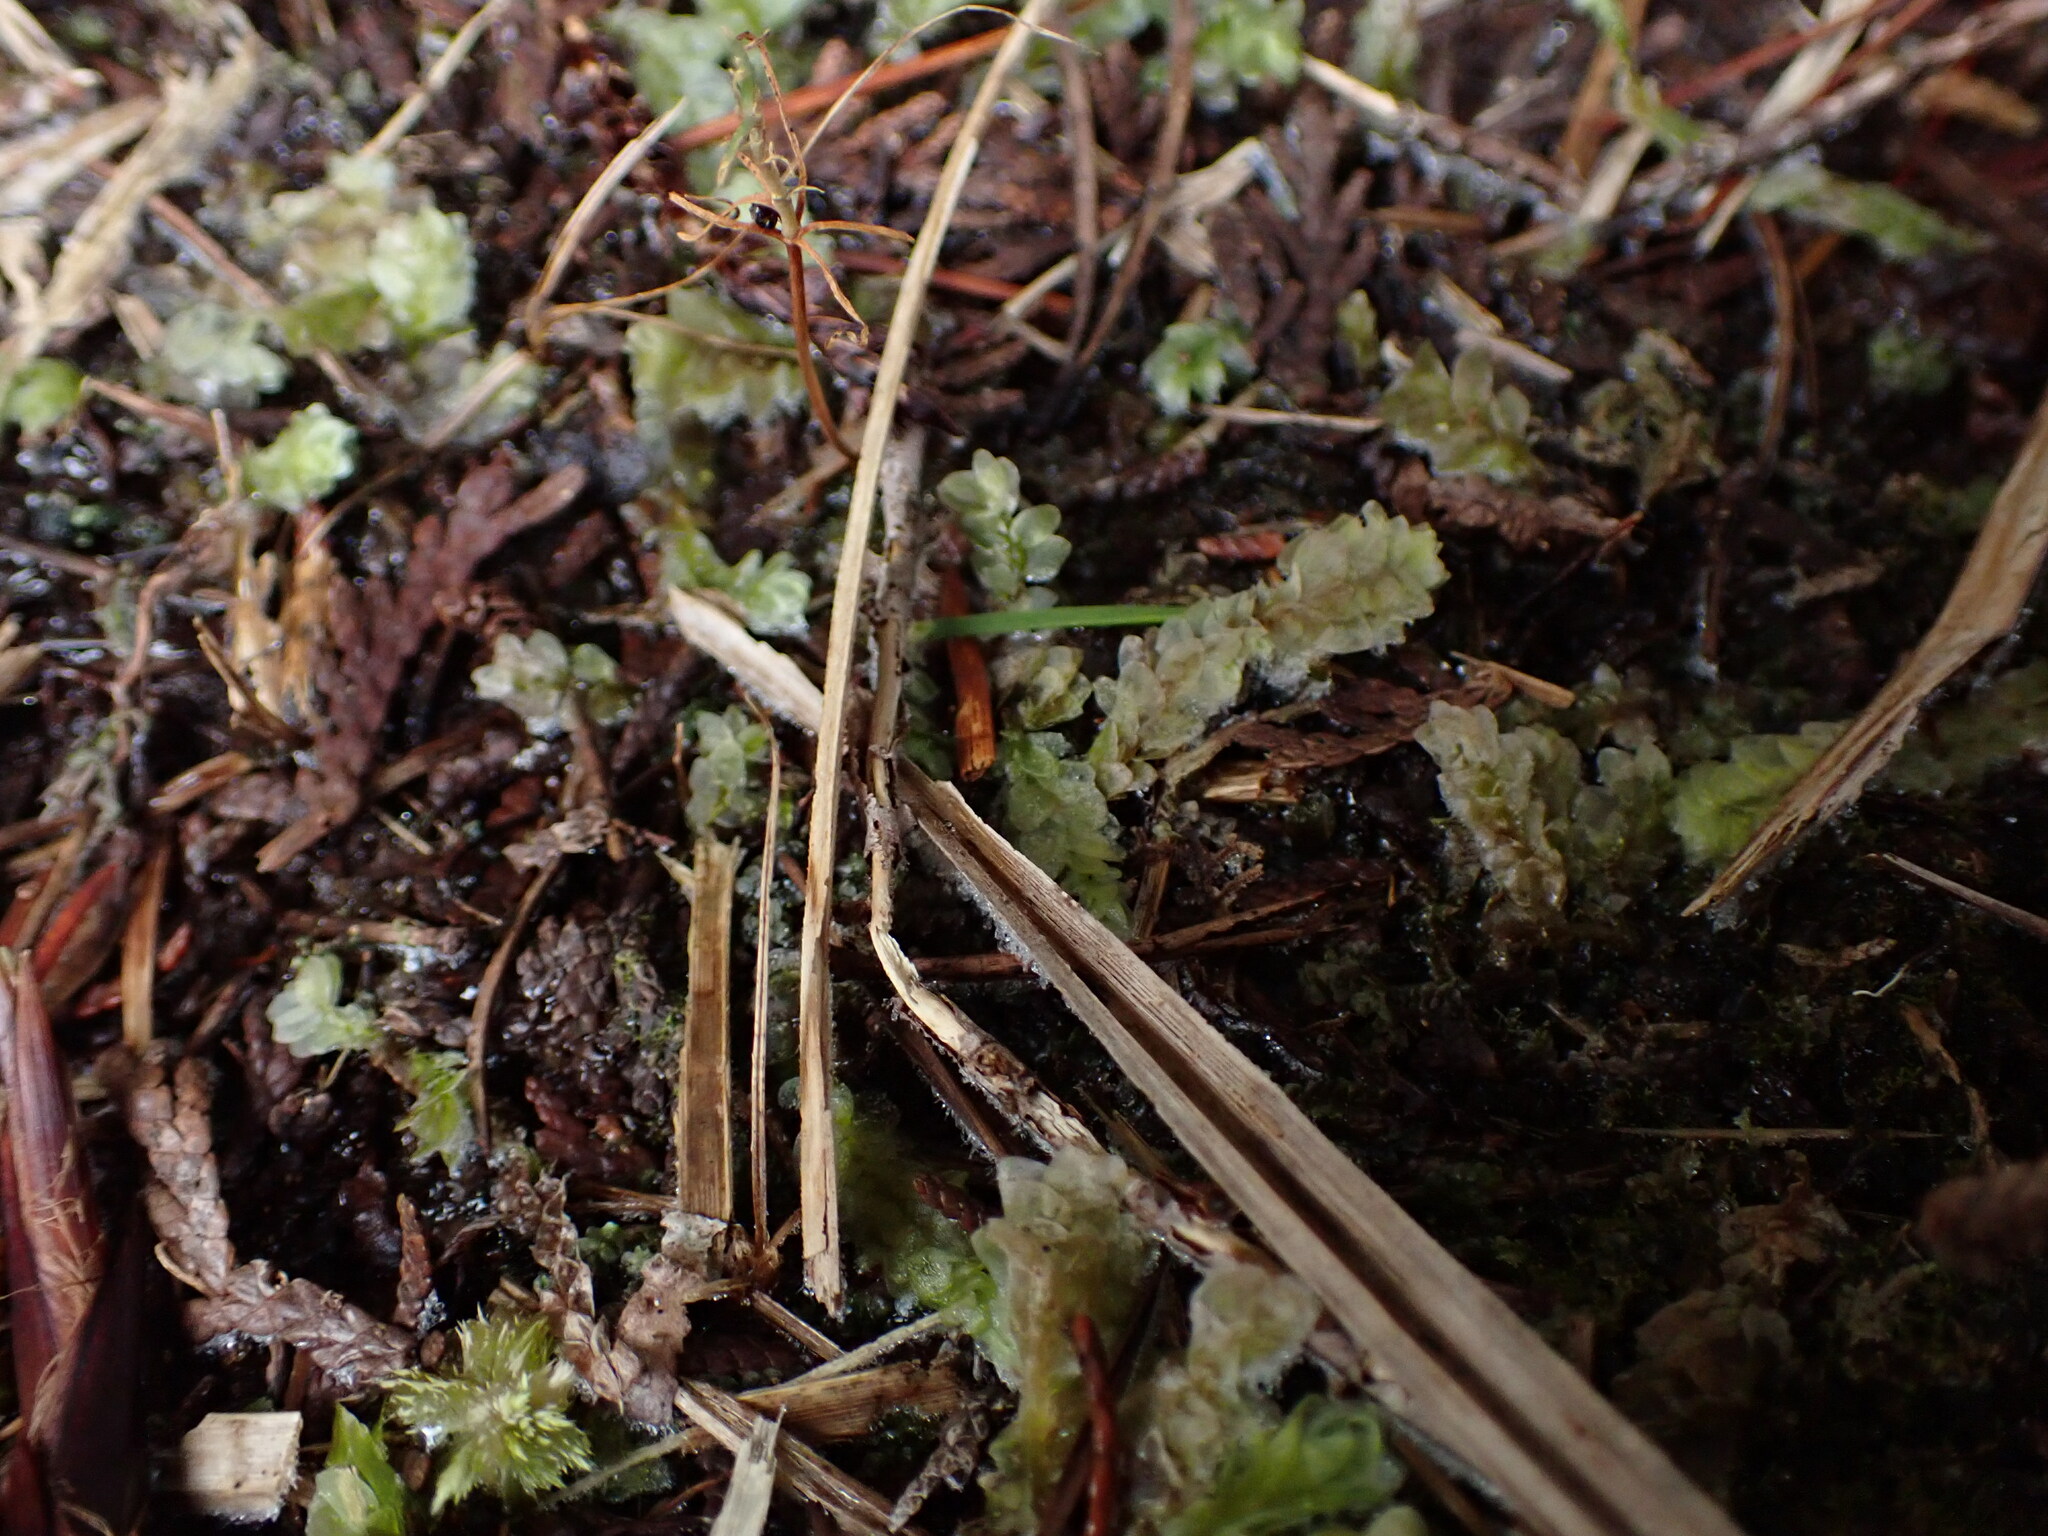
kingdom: Plantae
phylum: Bryophyta
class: Bryopsida
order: Hookeriales
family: Hookeriaceae
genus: Hookeria
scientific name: Hookeria lucens
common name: Shining hookeria
